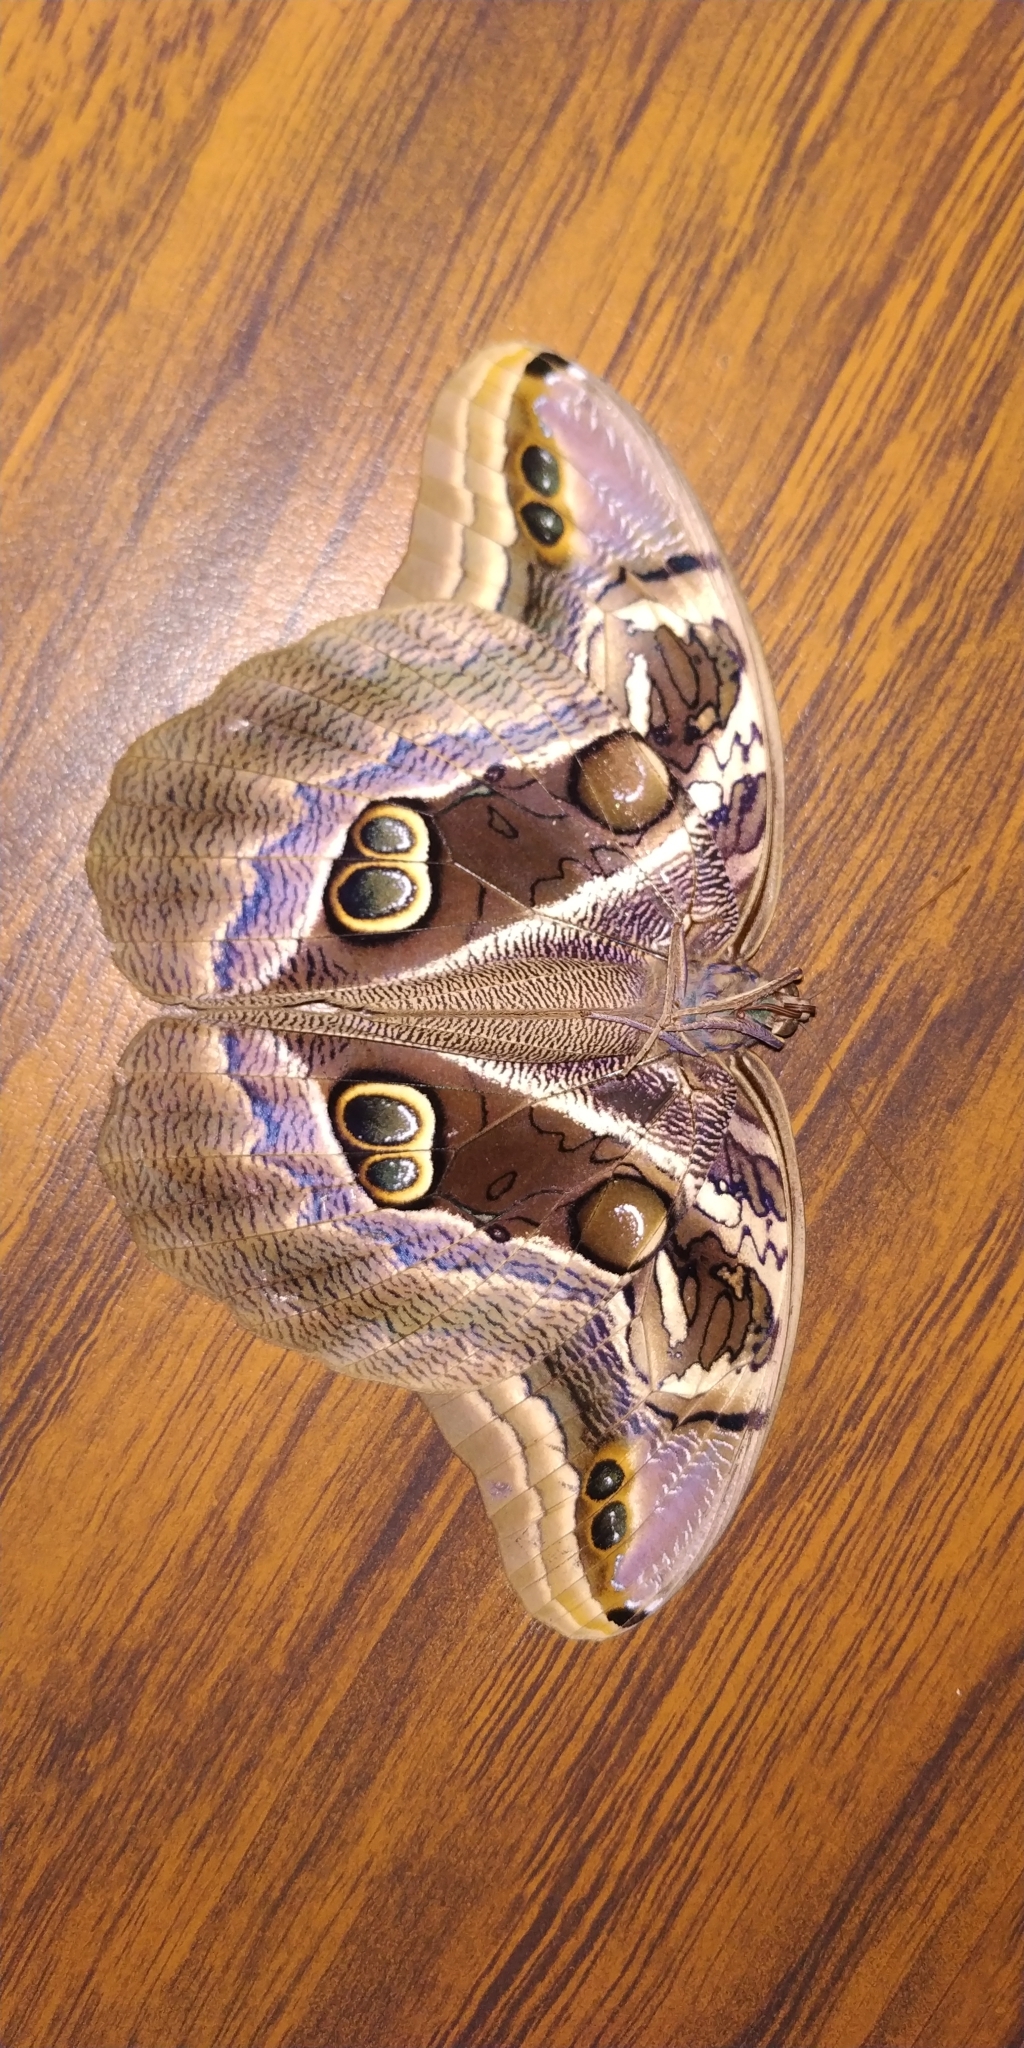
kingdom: Animalia
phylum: Arthropoda
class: Insecta
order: Lepidoptera
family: Nymphalidae
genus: Eryphanis
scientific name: Eryphanis aesacus
